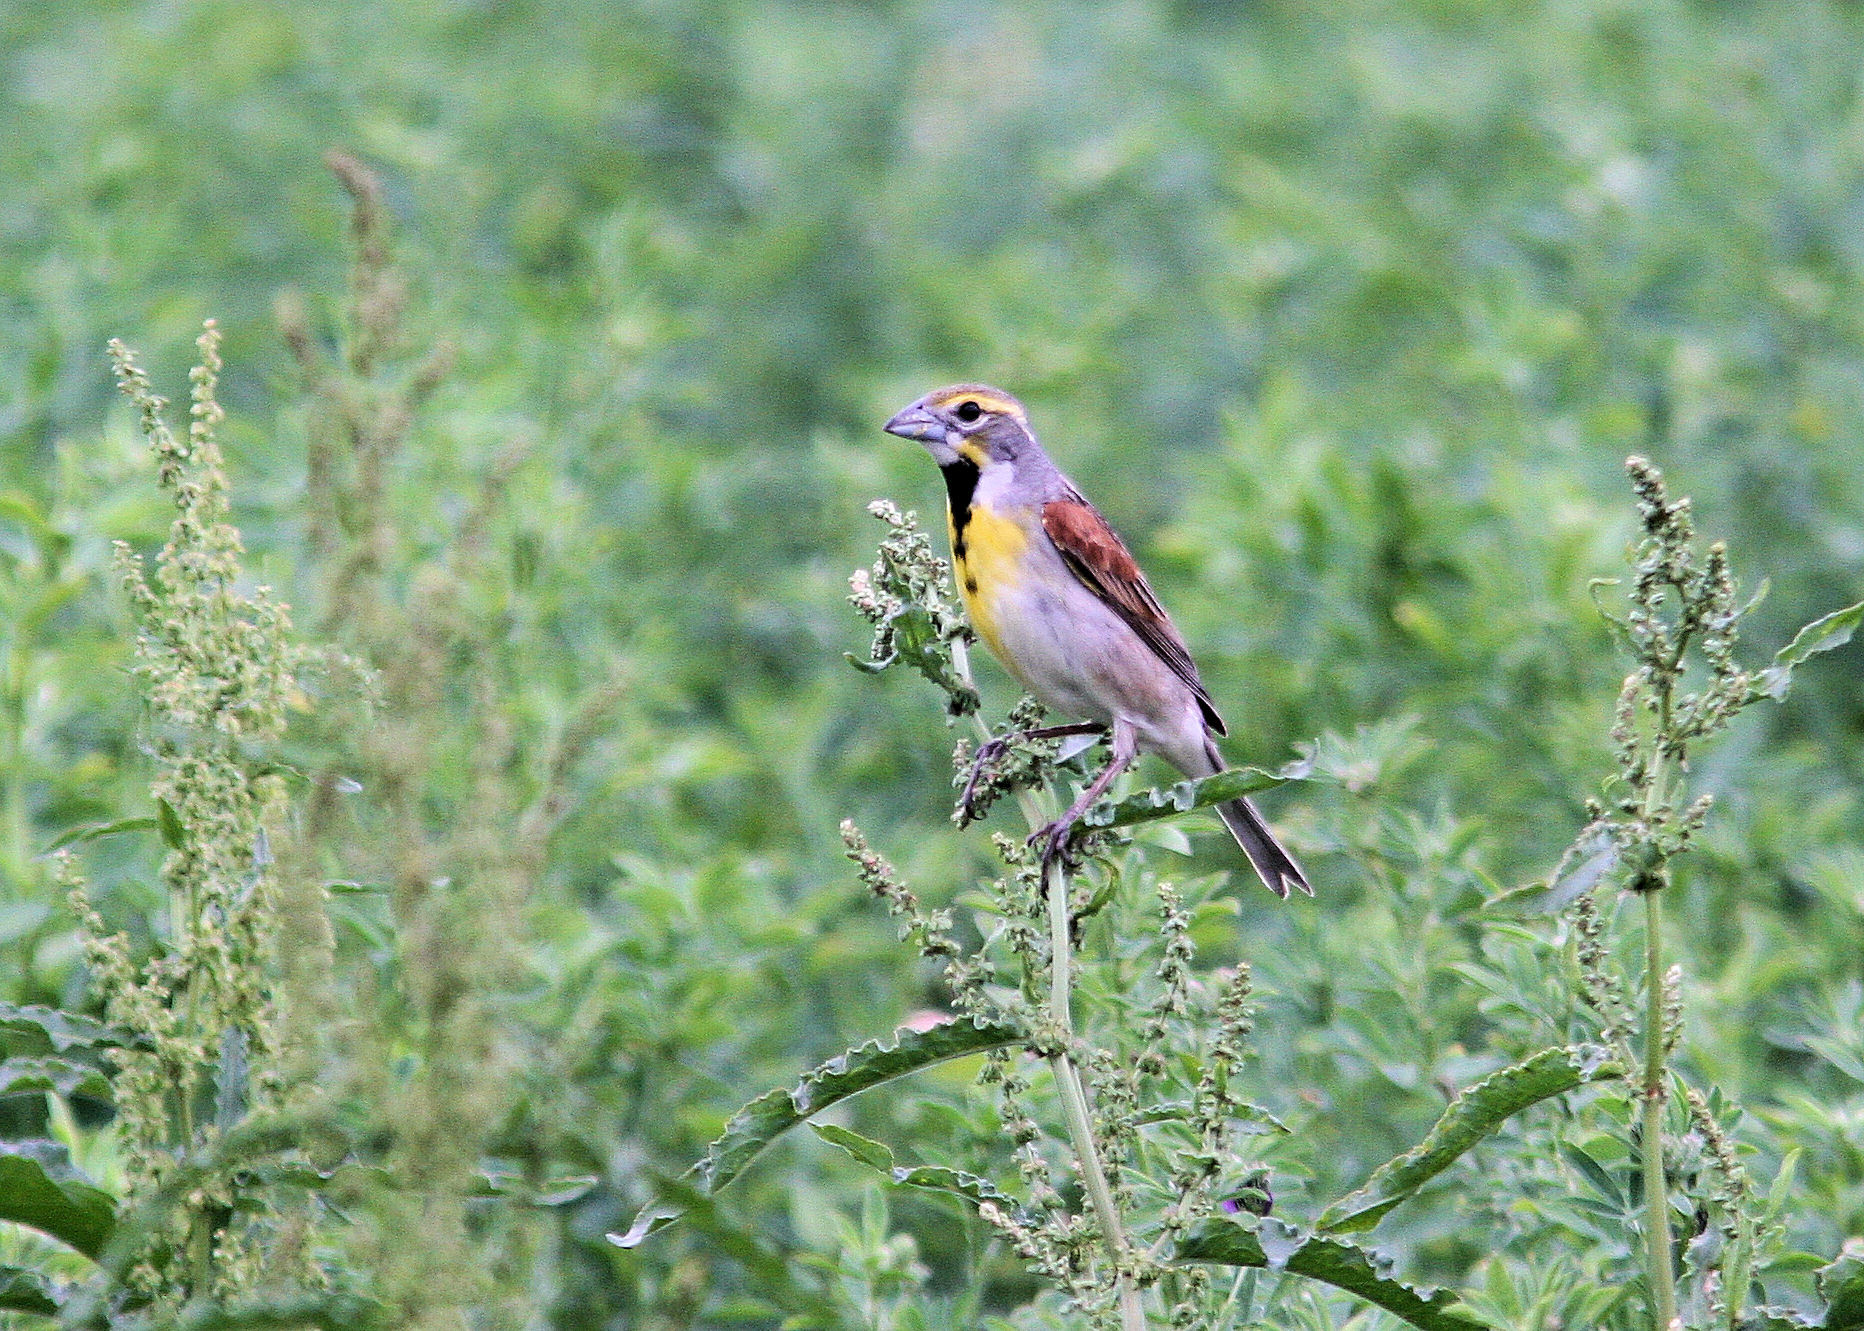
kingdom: Animalia
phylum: Chordata
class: Aves
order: Passeriformes
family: Cardinalidae
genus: Spiza
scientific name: Spiza americana
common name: Dickcissel
